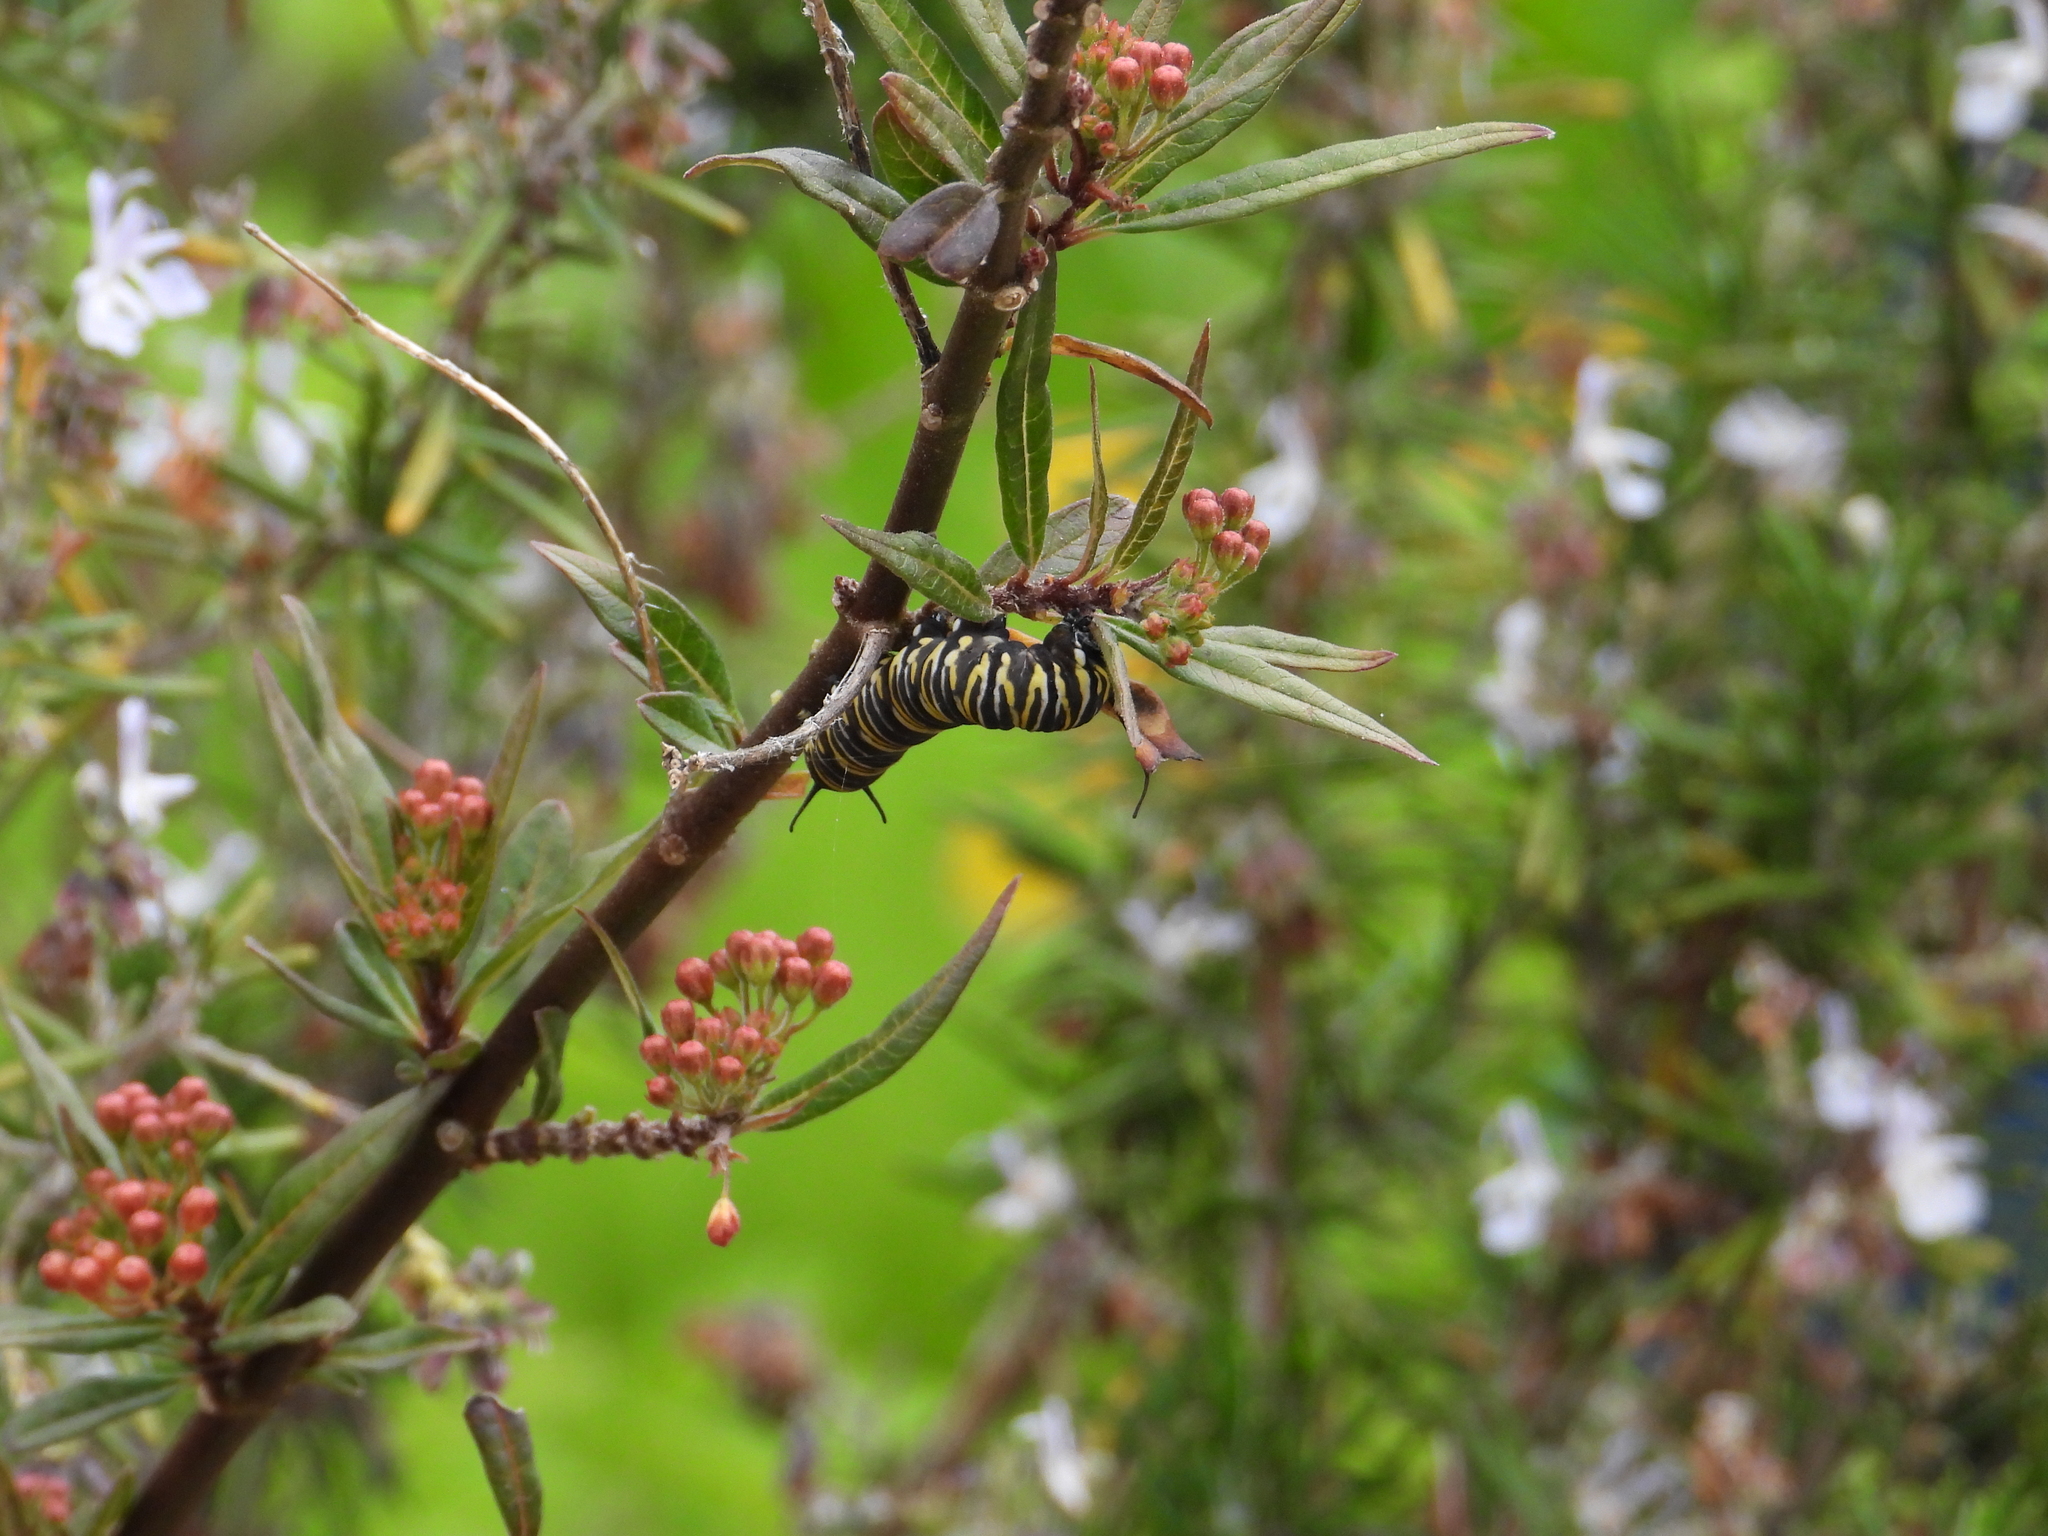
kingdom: Animalia
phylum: Arthropoda
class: Insecta
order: Lepidoptera
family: Nymphalidae
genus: Danaus
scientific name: Danaus plexippus
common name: Monarch
